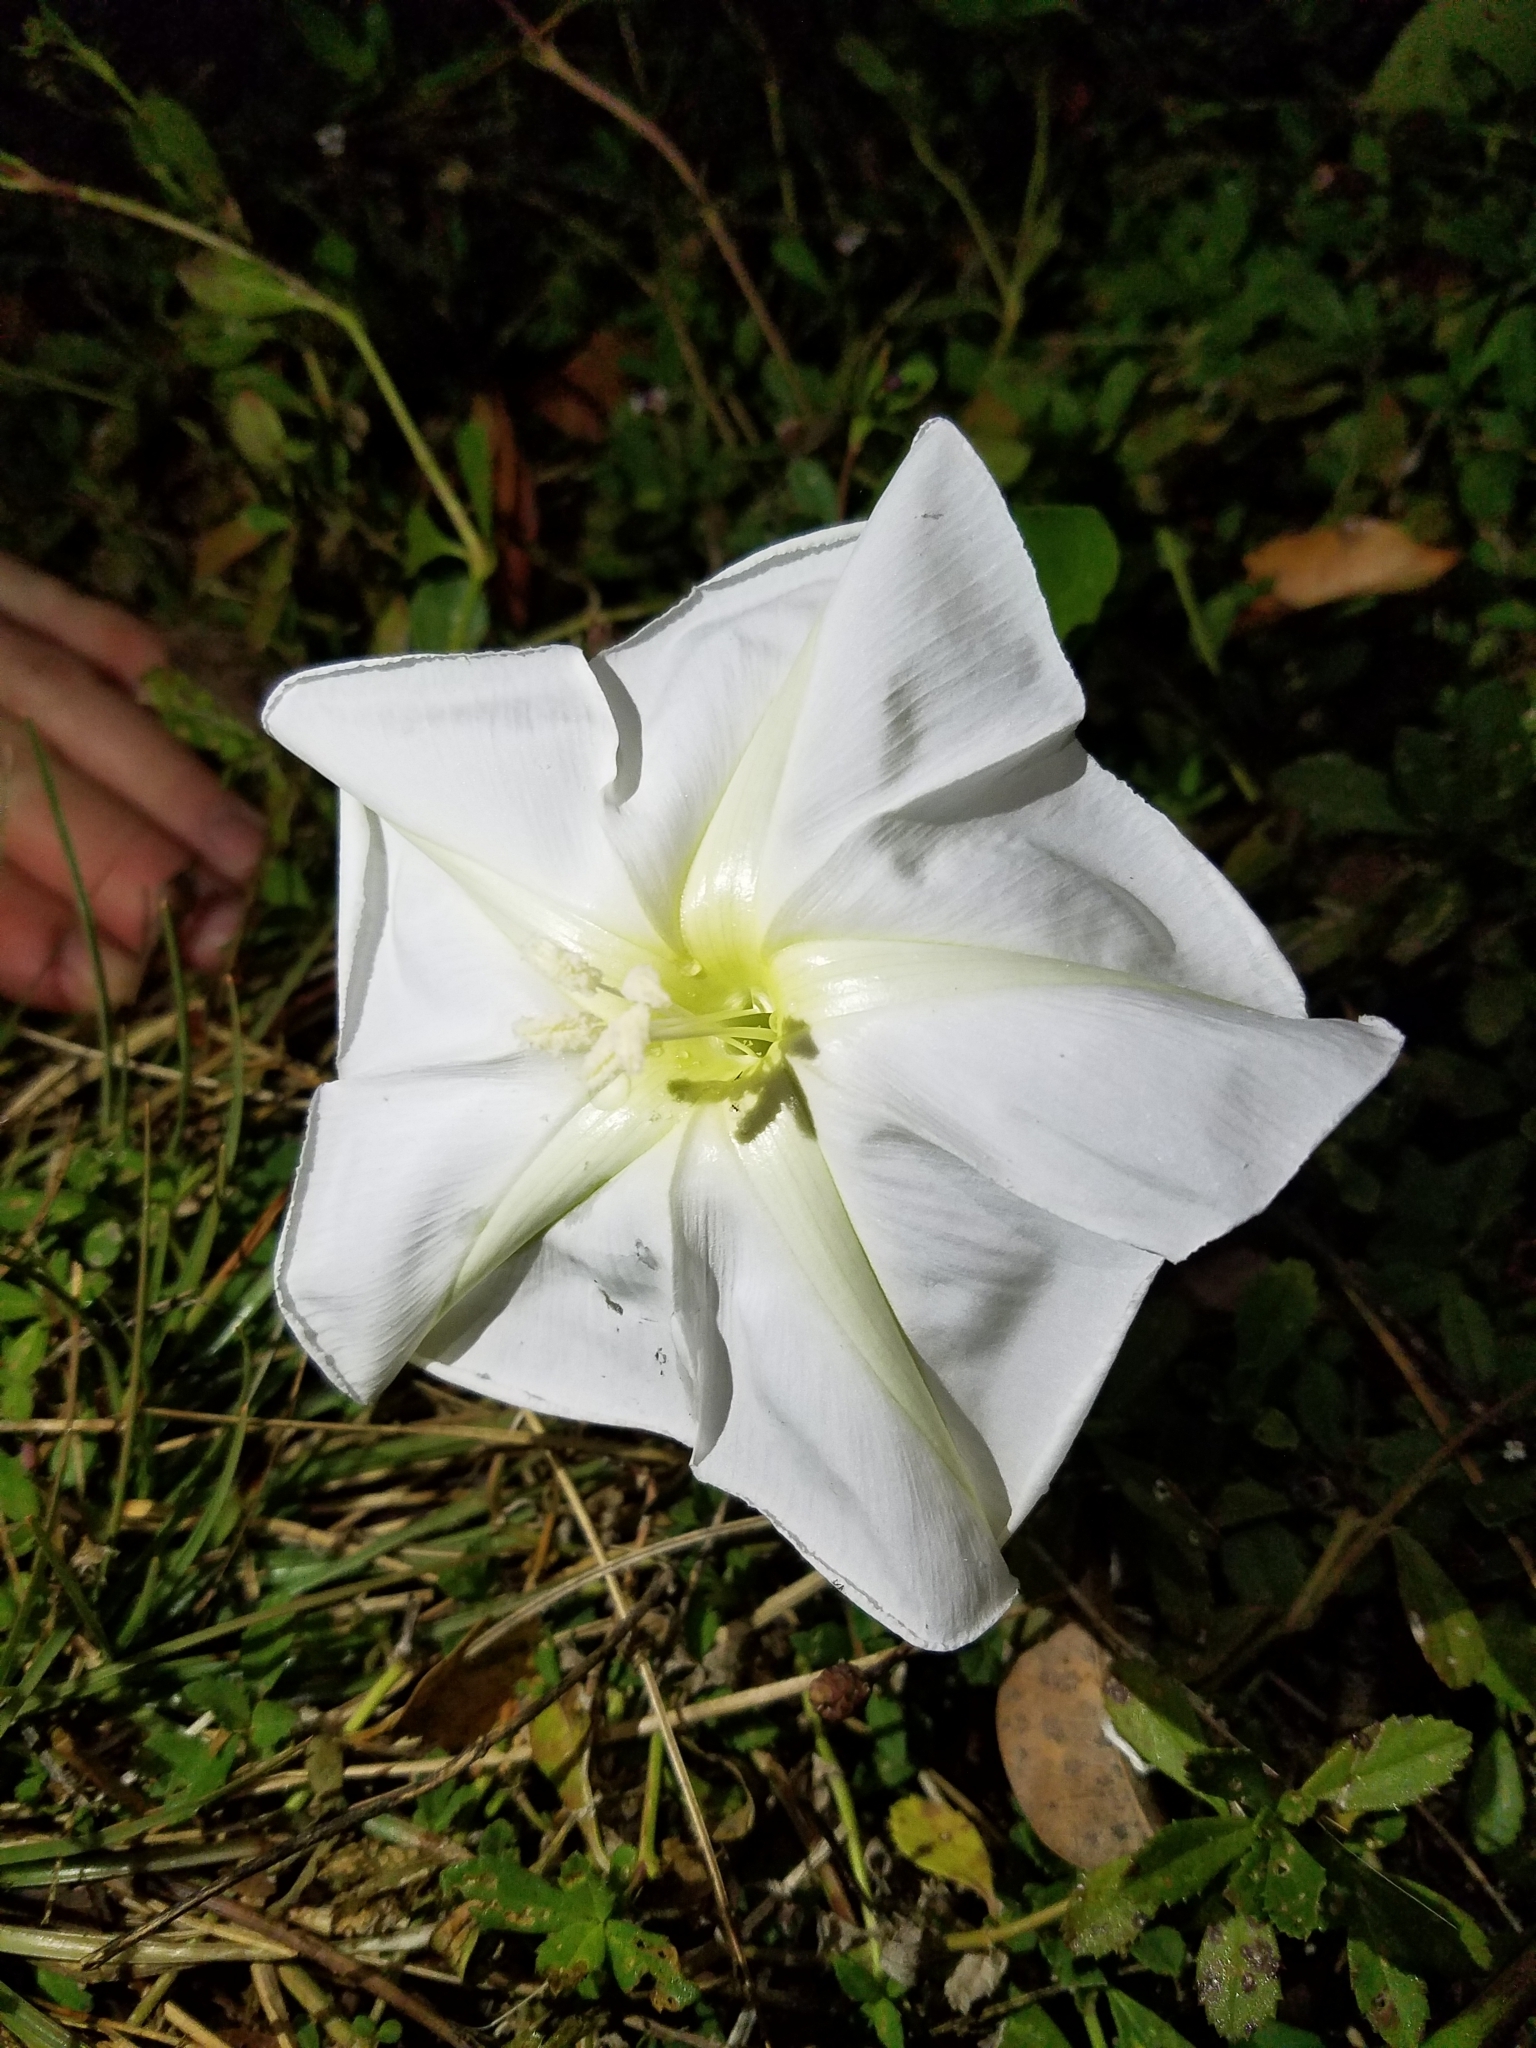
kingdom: Plantae
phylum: Tracheophyta
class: Magnoliopsida
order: Solanales
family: Convolvulaceae
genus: Ipomoea
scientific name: Ipomoea alba
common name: Moonflower
